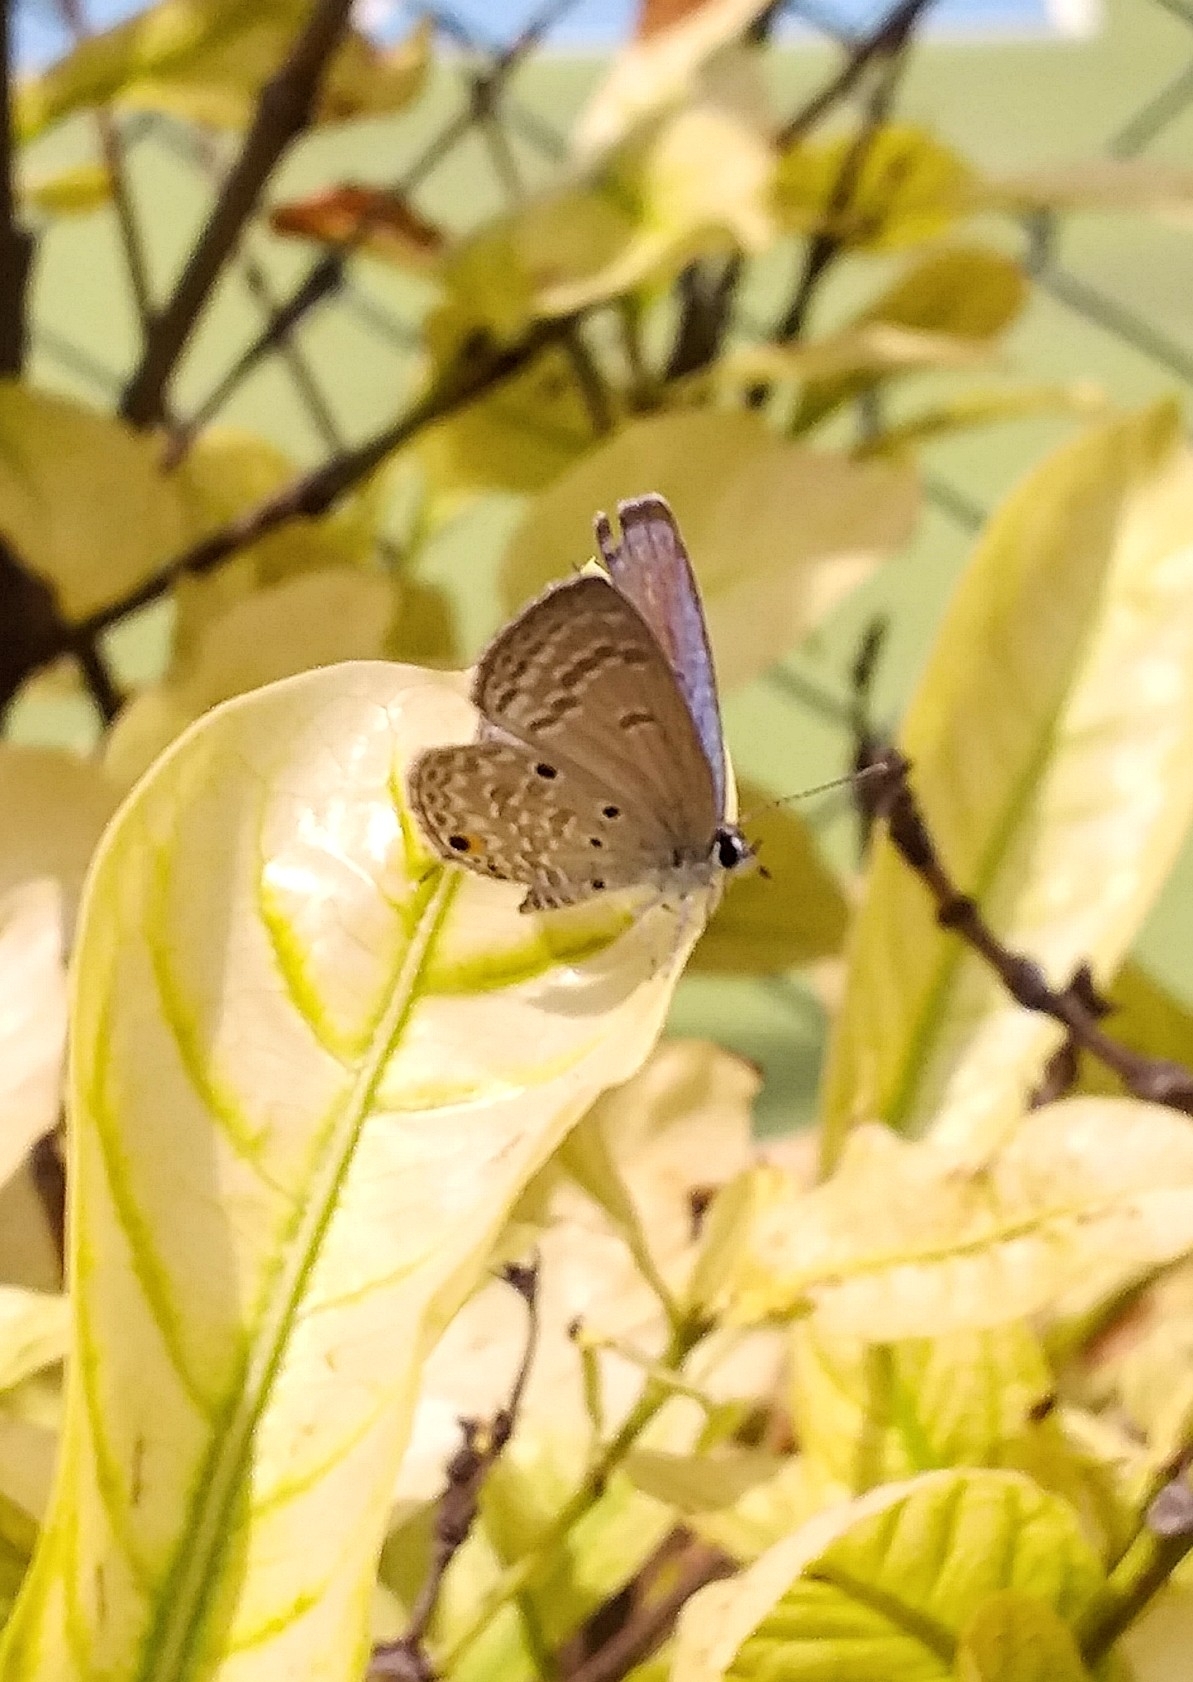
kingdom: Animalia
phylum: Arthropoda
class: Insecta
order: Lepidoptera
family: Lycaenidae
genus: Luthrodes
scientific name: Luthrodes pandava
